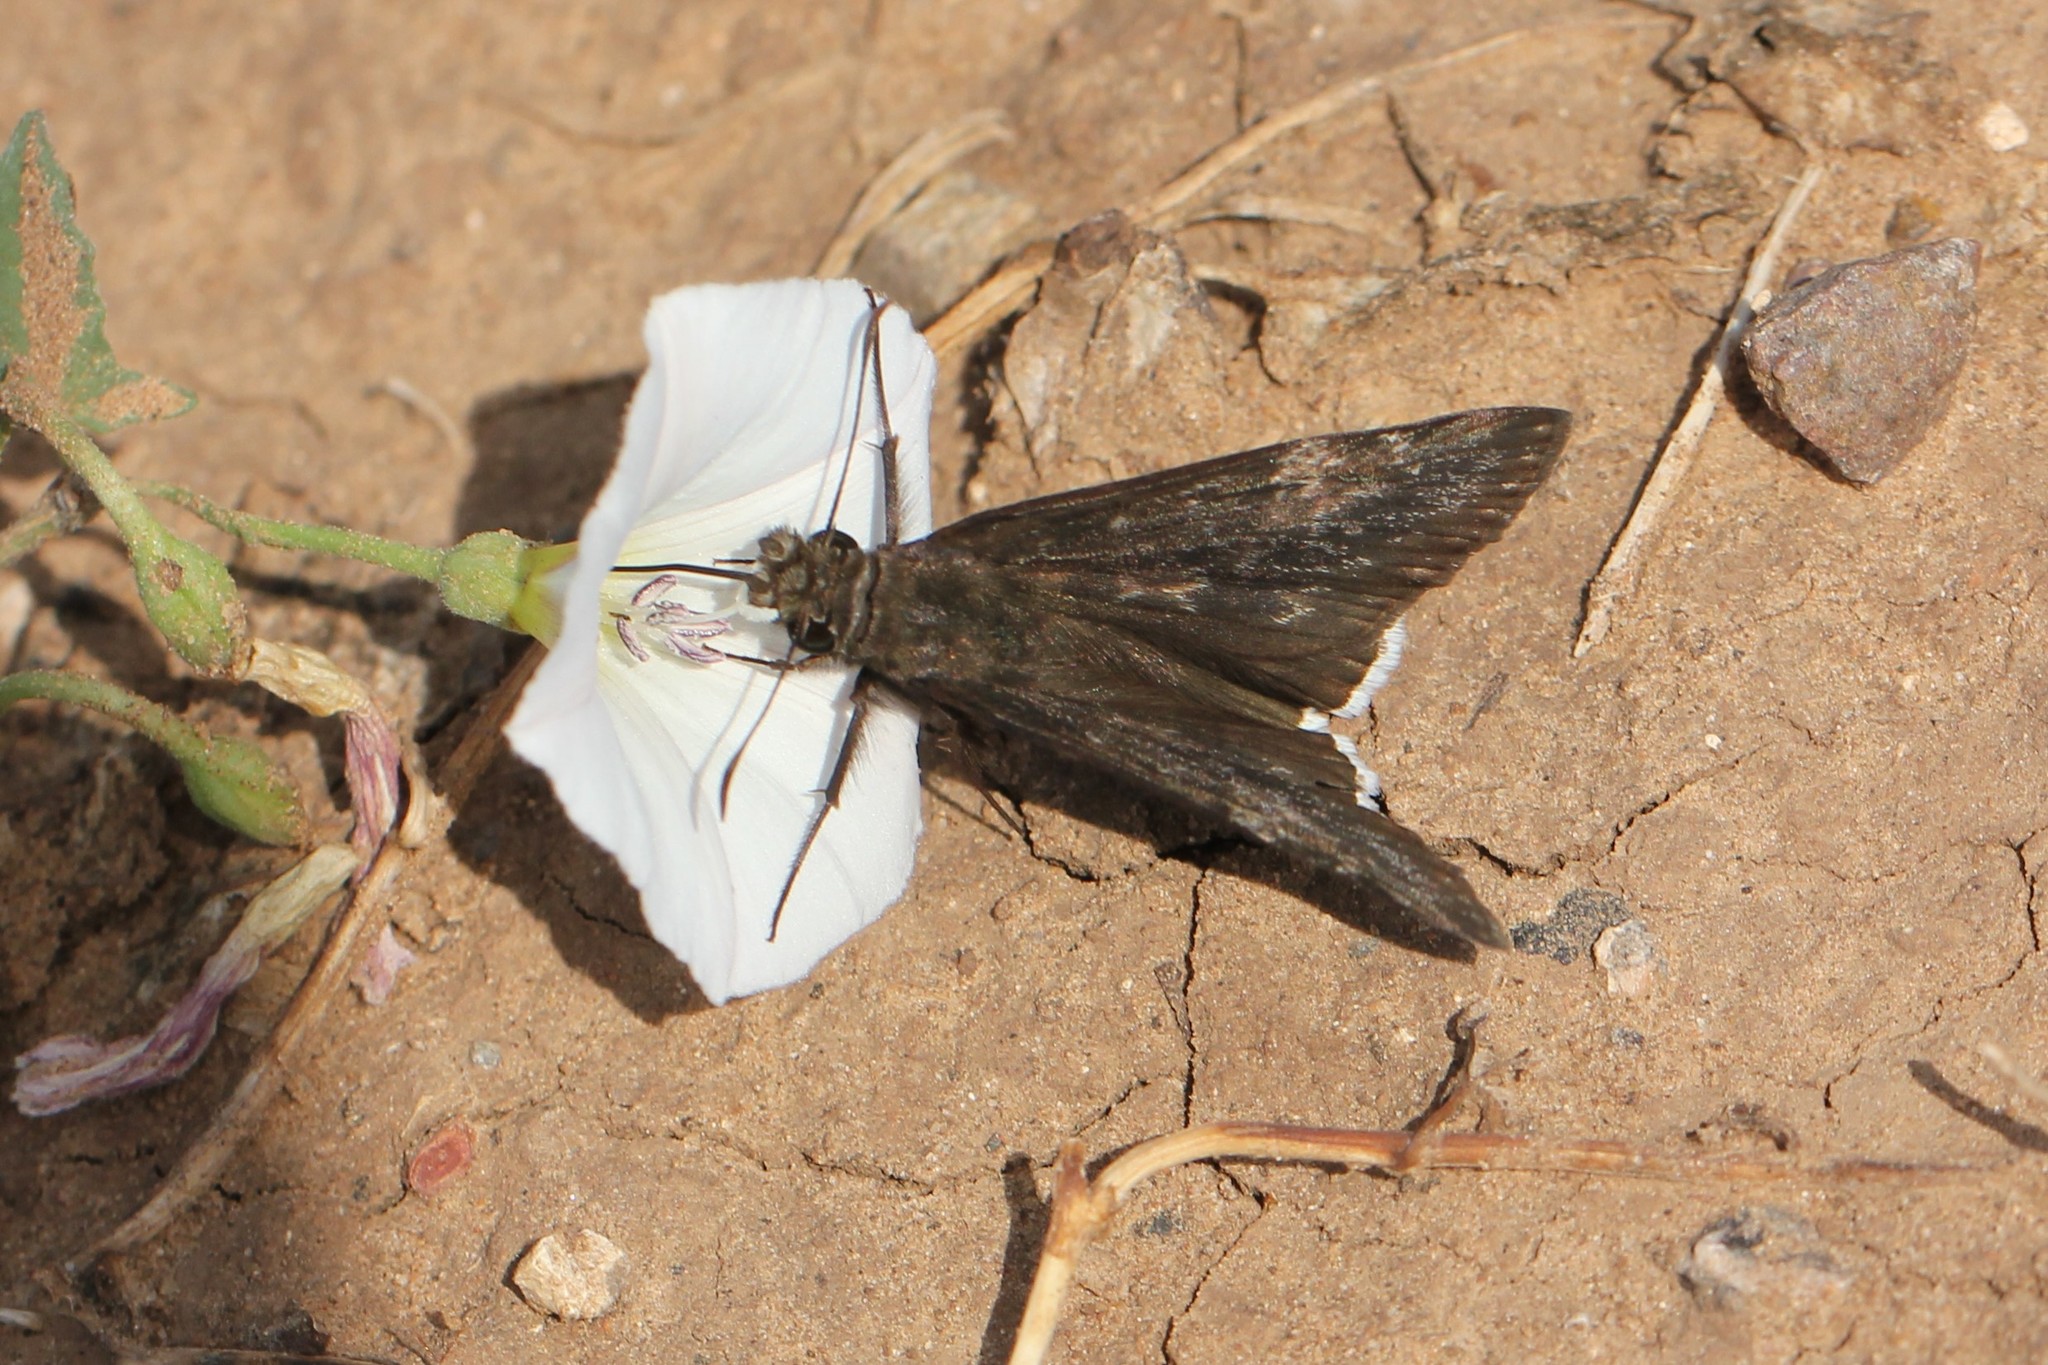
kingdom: Animalia
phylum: Arthropoda
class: Insecta
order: Lepidoptera
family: Hesperiidae
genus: Erynnis
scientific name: Erynnis funeralis
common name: Funereal duskywing
